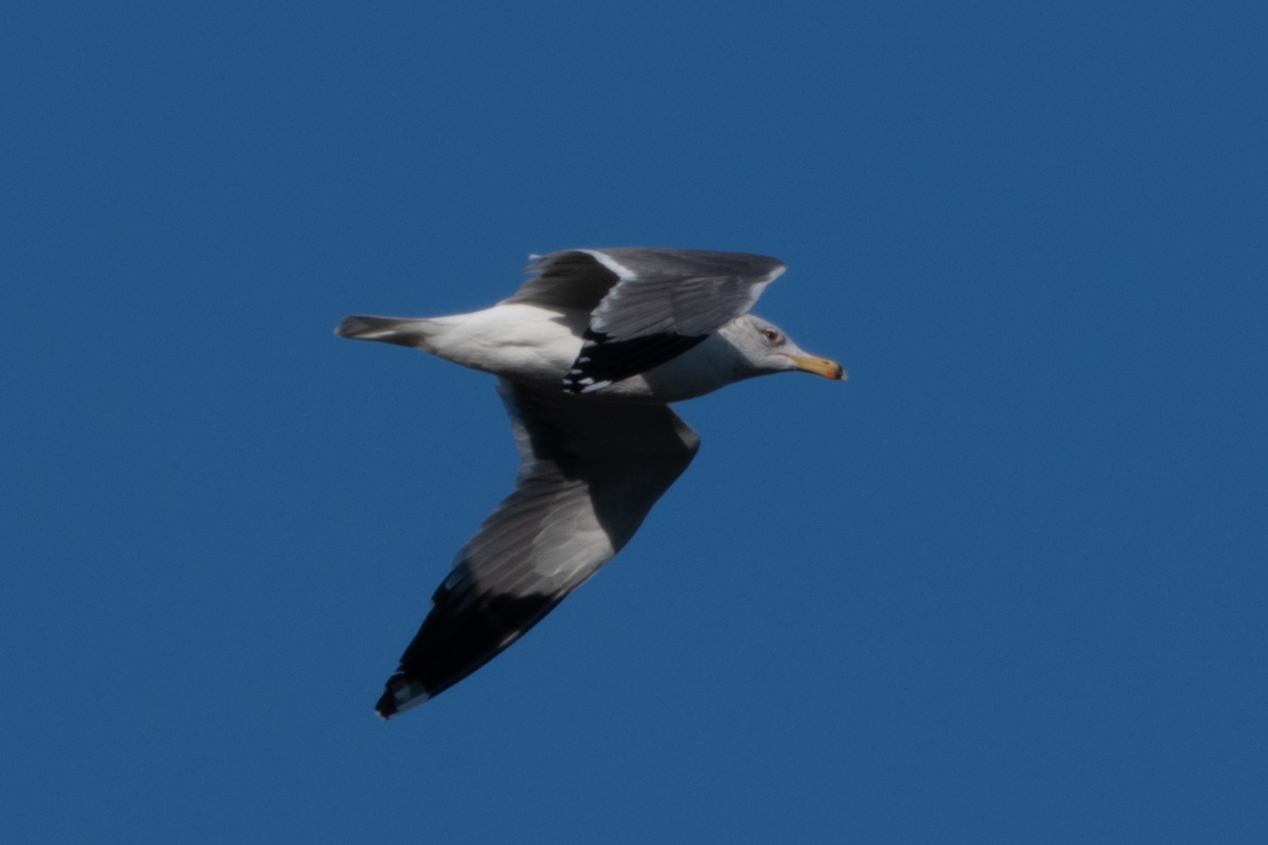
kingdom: Animalia
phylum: Chordata
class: Aves
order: Charadriiformes
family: Laridae
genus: Larus
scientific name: Larus californicus
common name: California gull
